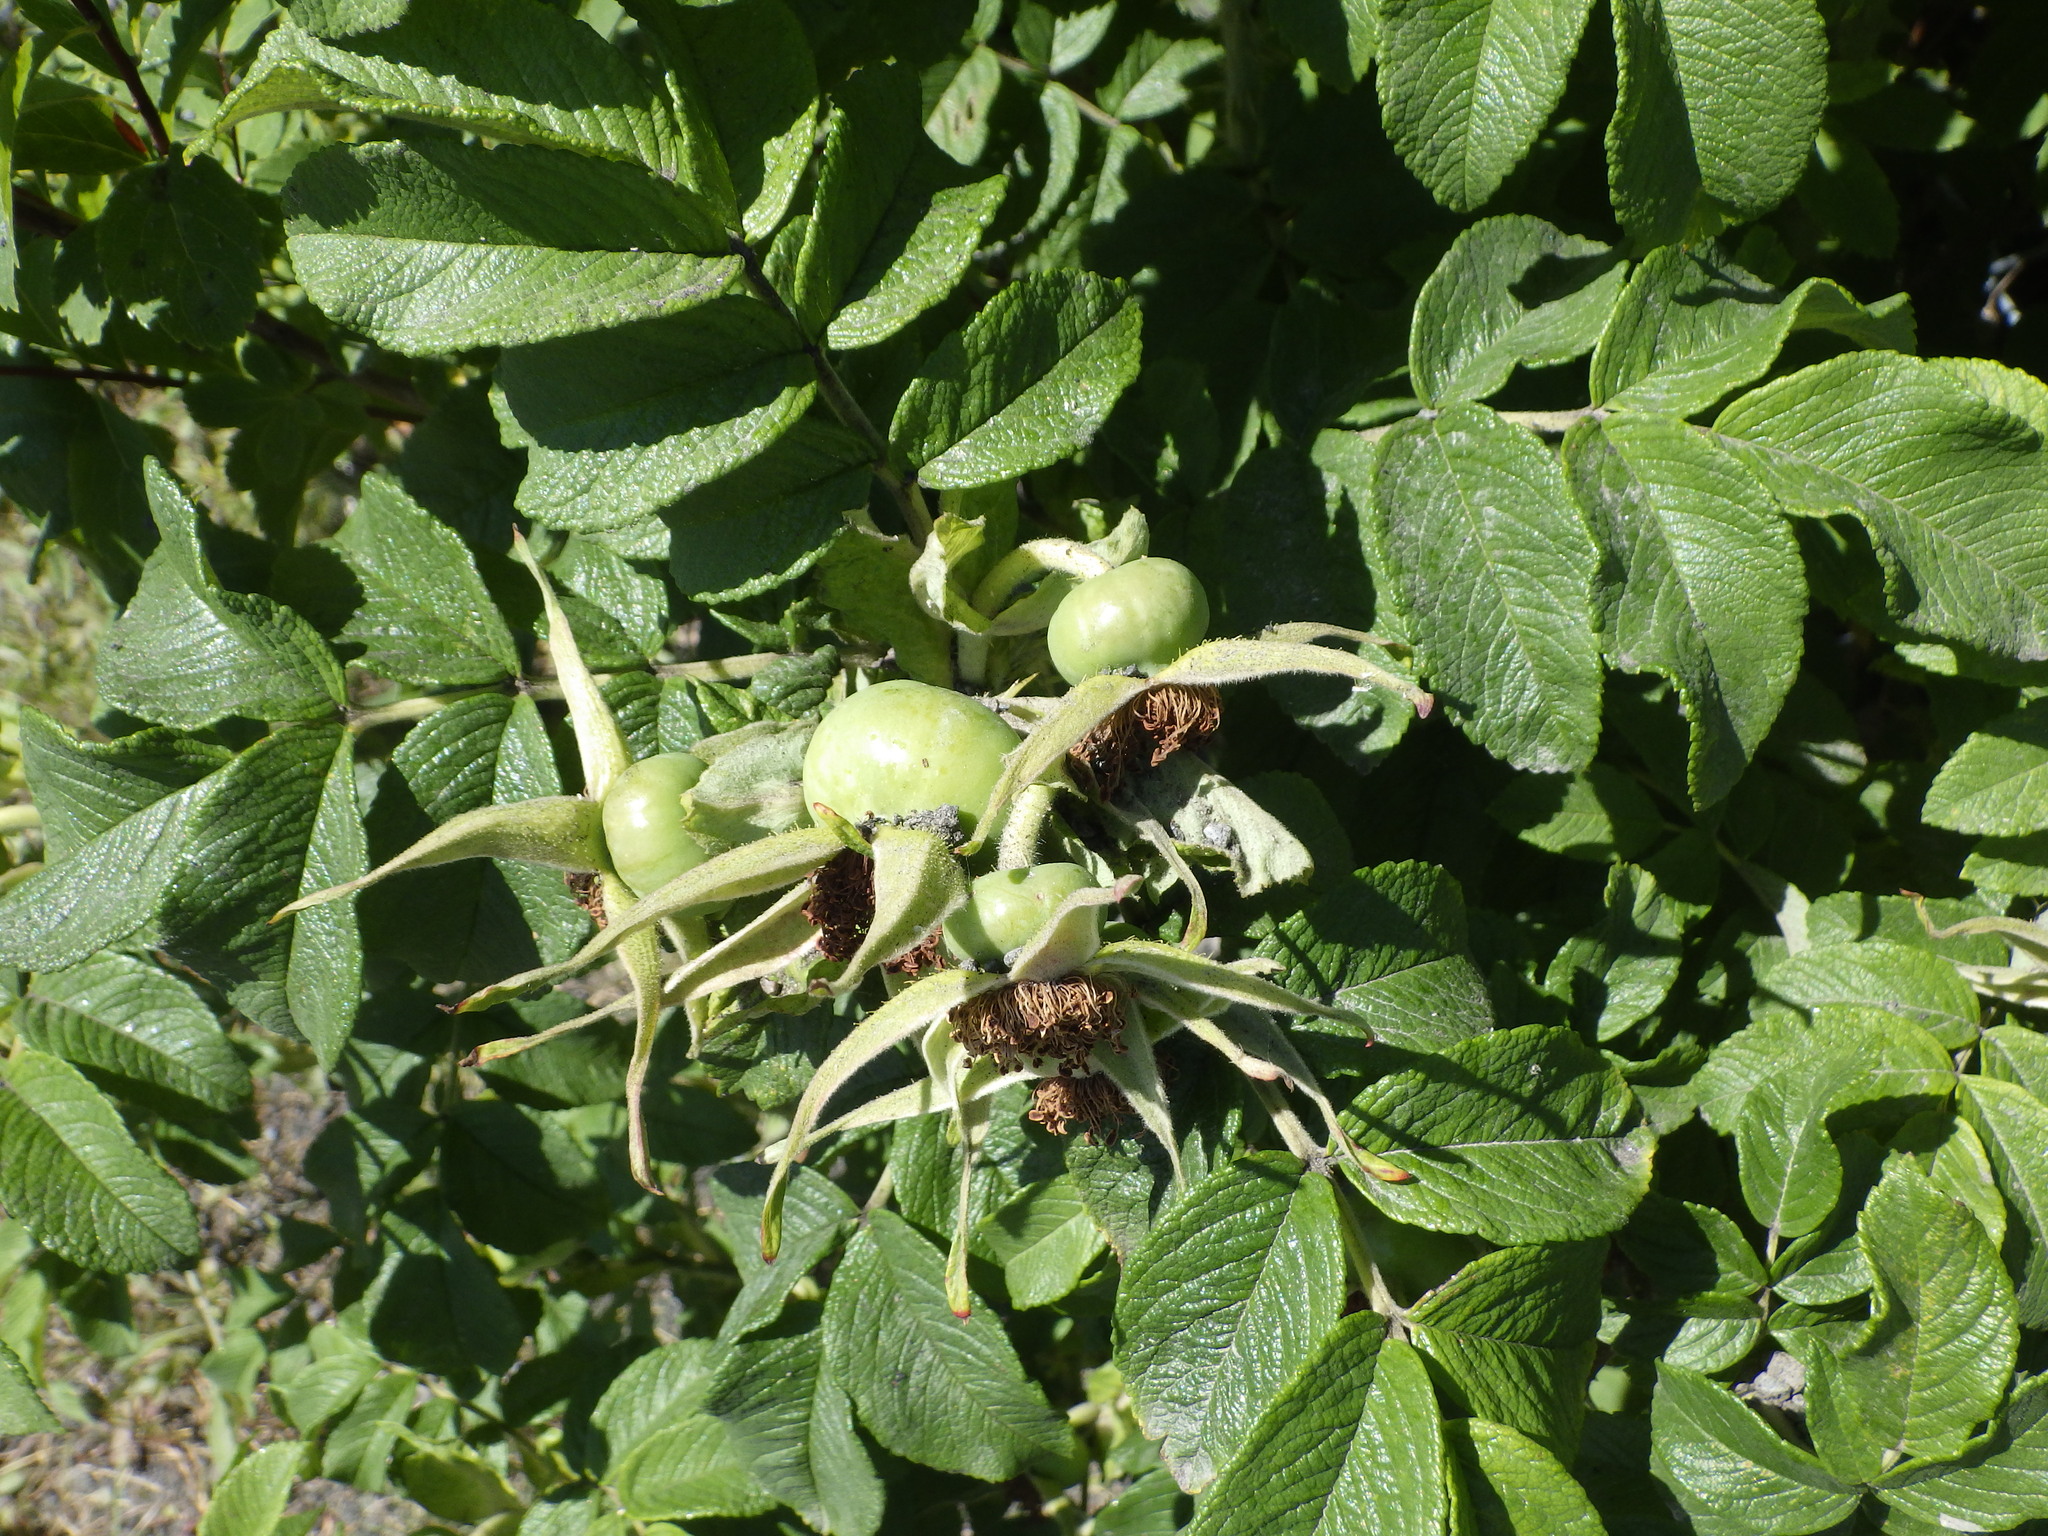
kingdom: Plantae
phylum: Tracheophyta
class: Magnoliopsida
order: Rosales
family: Rosaceae
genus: Rosa
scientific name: Rosa rugosa
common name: Japanese rose
